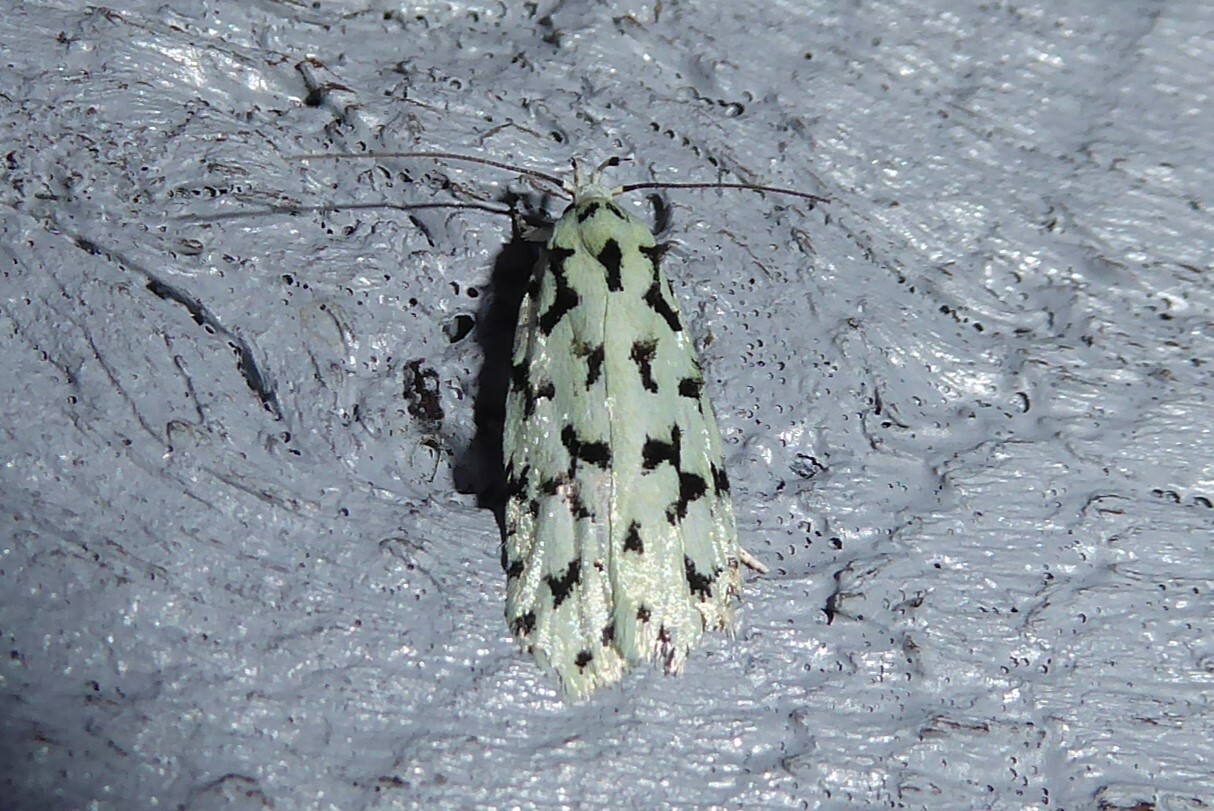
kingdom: Animalia
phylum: Arthropoda
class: Insecta
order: Lepidoptera
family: Oecophoridae
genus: Izatha
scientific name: Izatha huttoni
